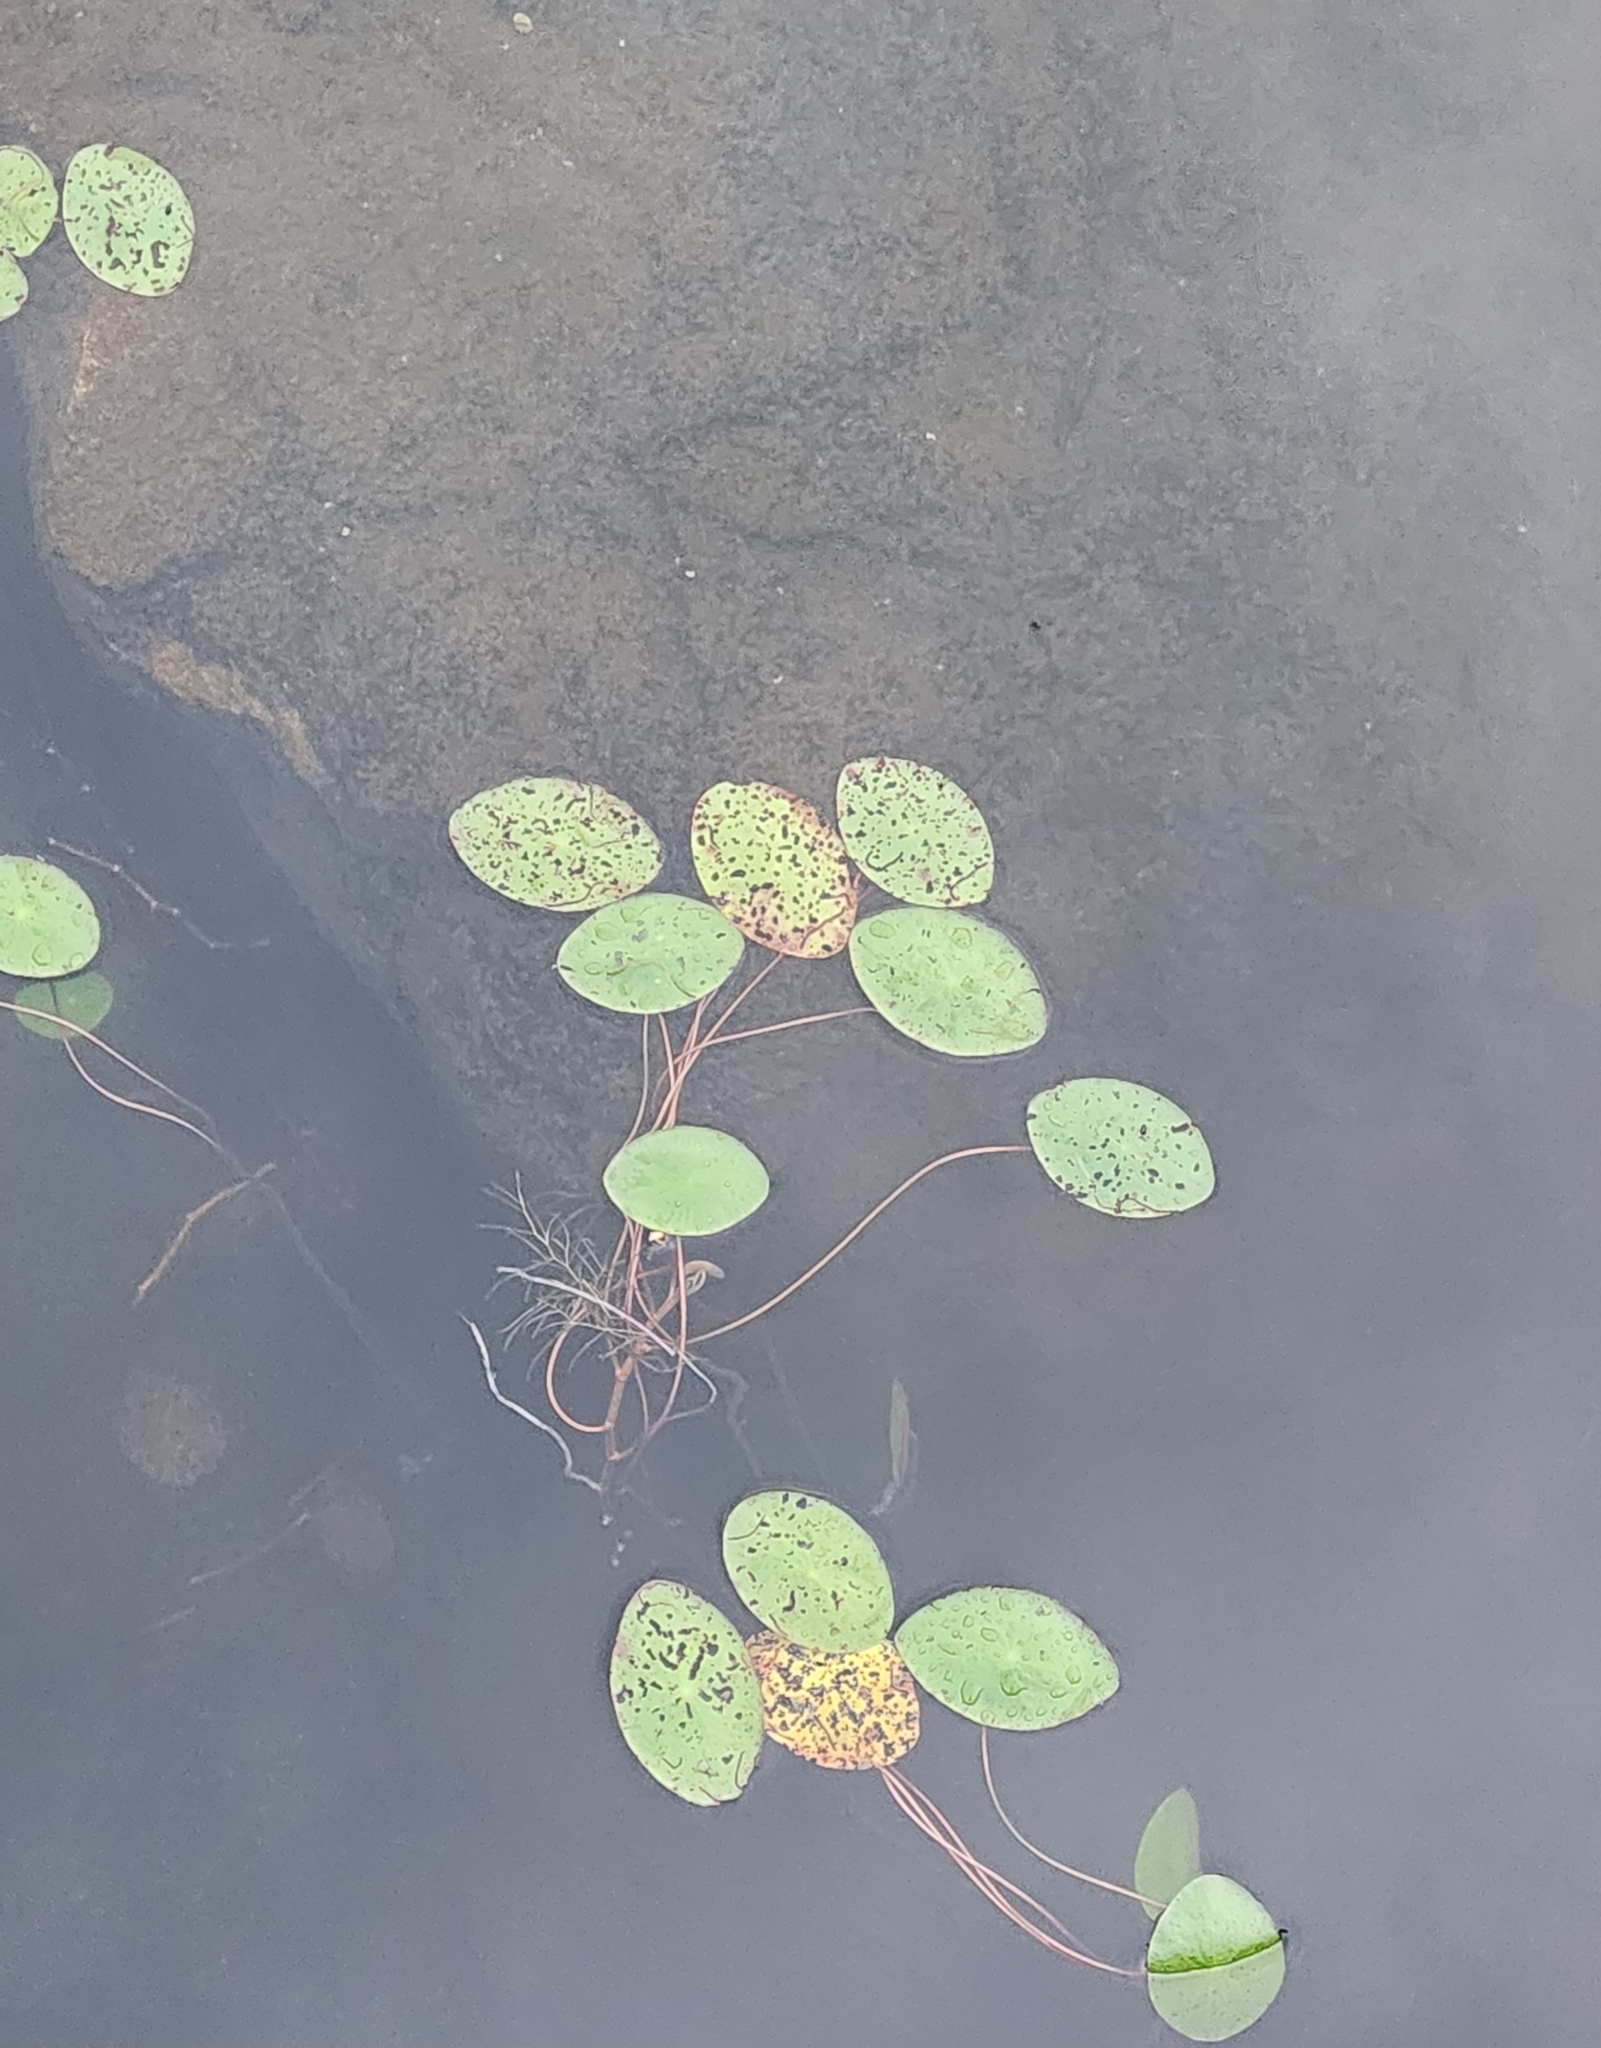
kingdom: Plantae
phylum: Tracheophyta
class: Magnoliopsida
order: Nymphaeales
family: Cabombaceae
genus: Brasenia
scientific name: Brasenia schreberi
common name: Water-shield
